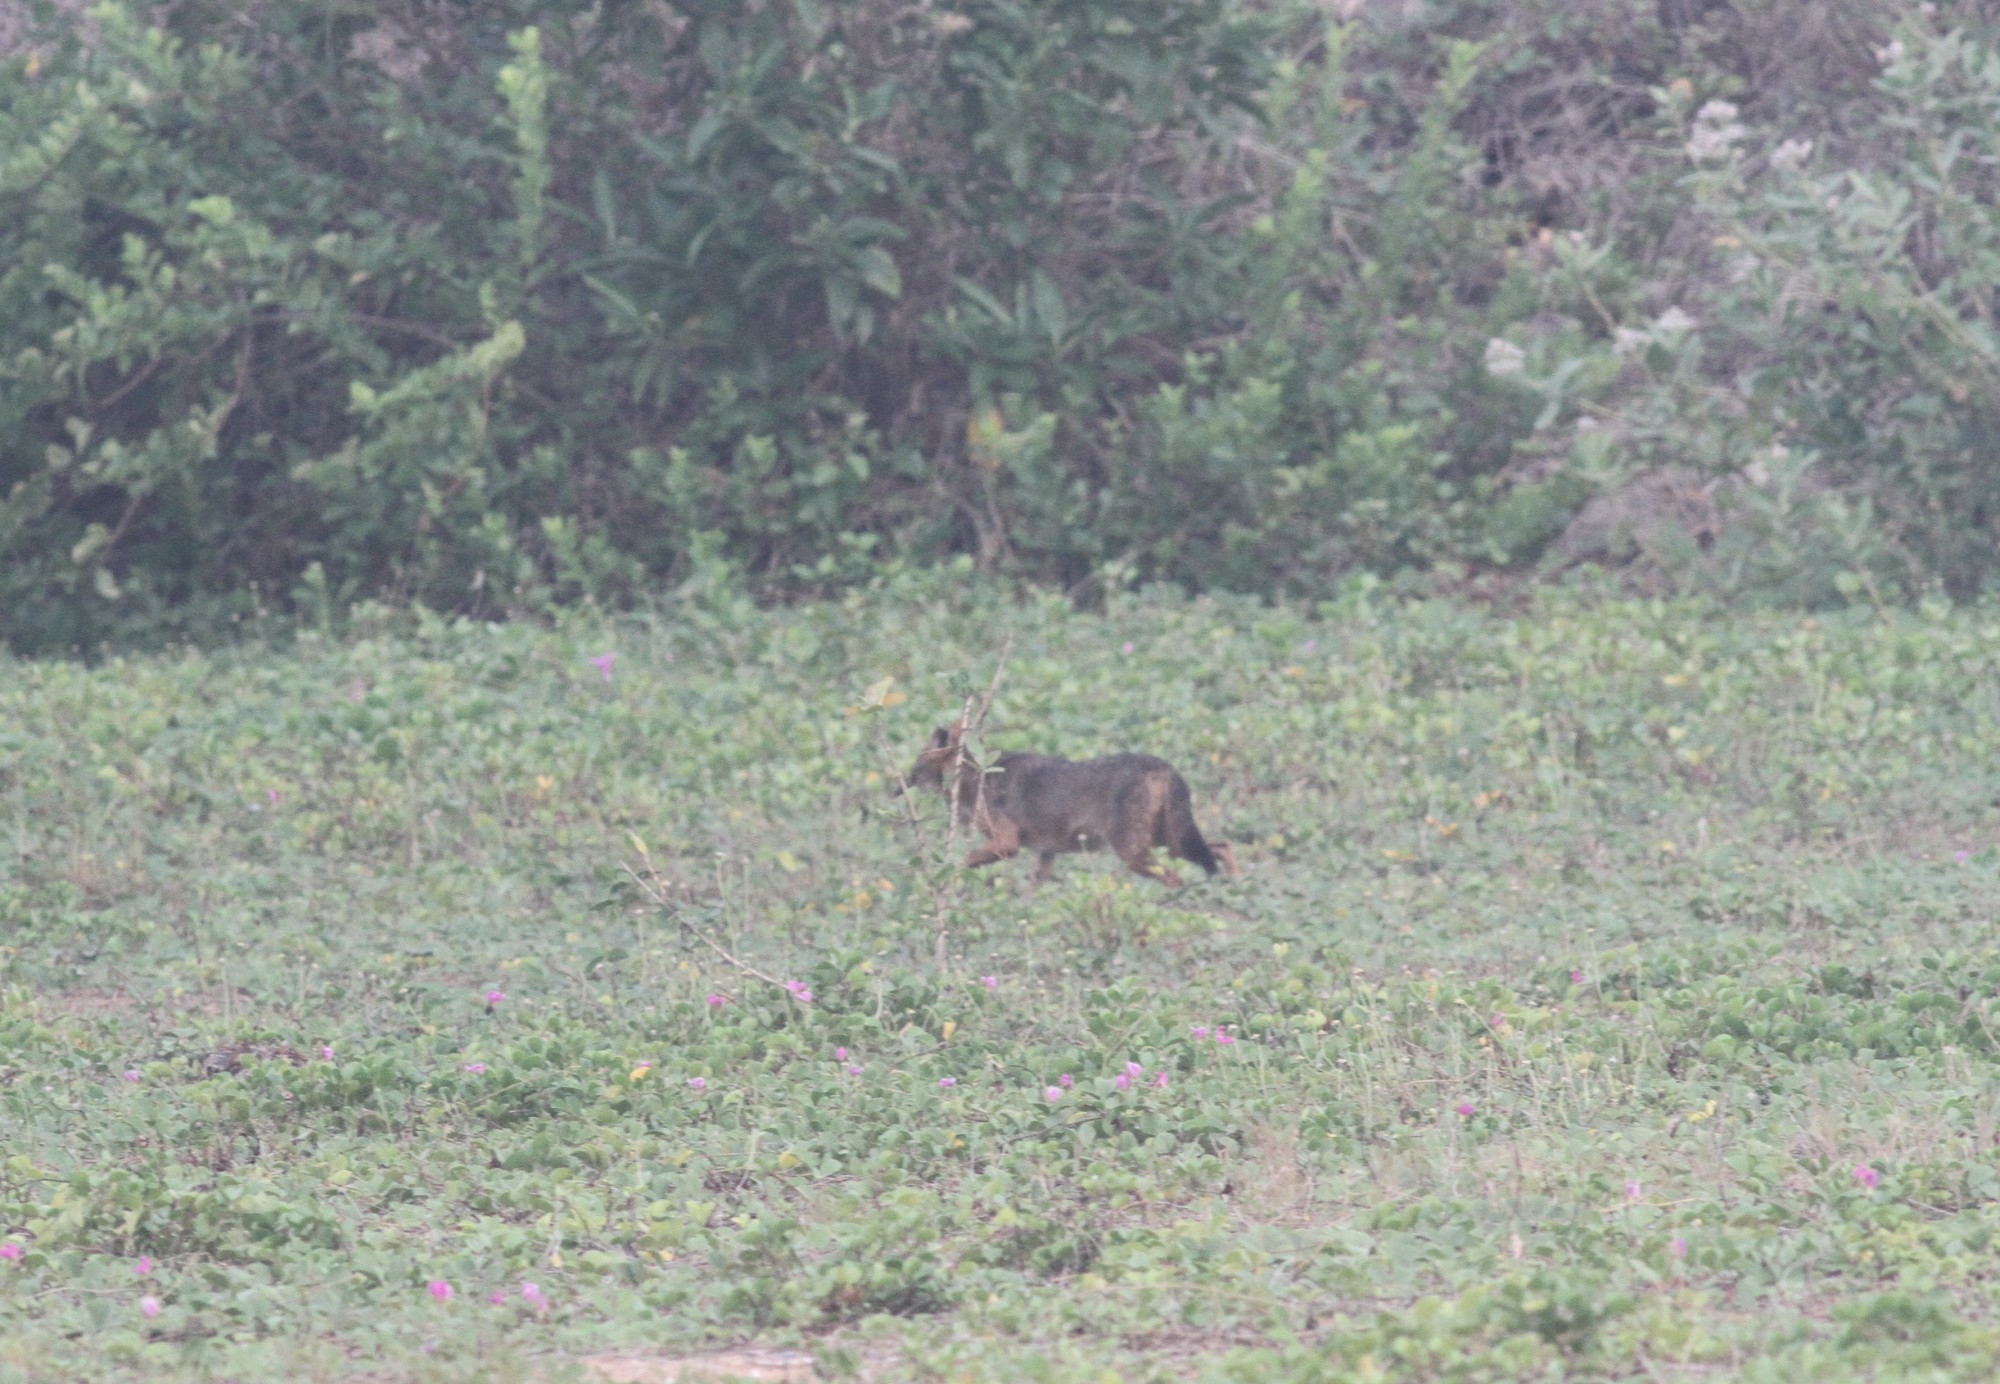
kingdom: Animalia
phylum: Chordata
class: Mammalia
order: Carnivora
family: Canidae
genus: Canis
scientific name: Canis aureus
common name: Golden jackal
